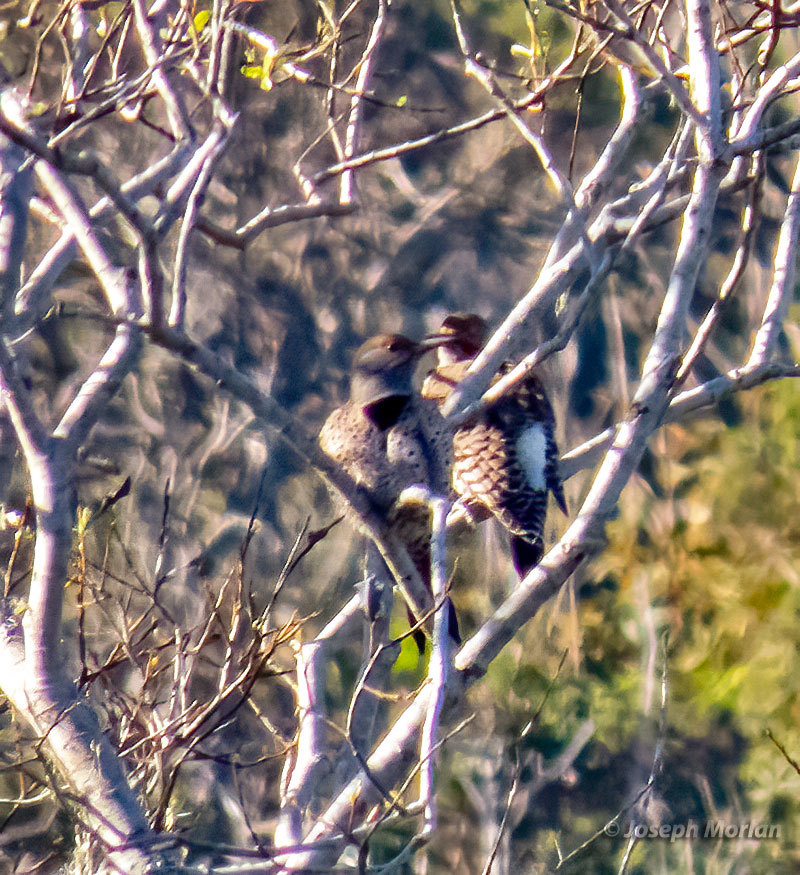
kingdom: Animalia
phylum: Chordata
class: Aves
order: Piciformes
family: Picidae
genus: Colaptes
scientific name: Colaptes auratus
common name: Northern flicker
